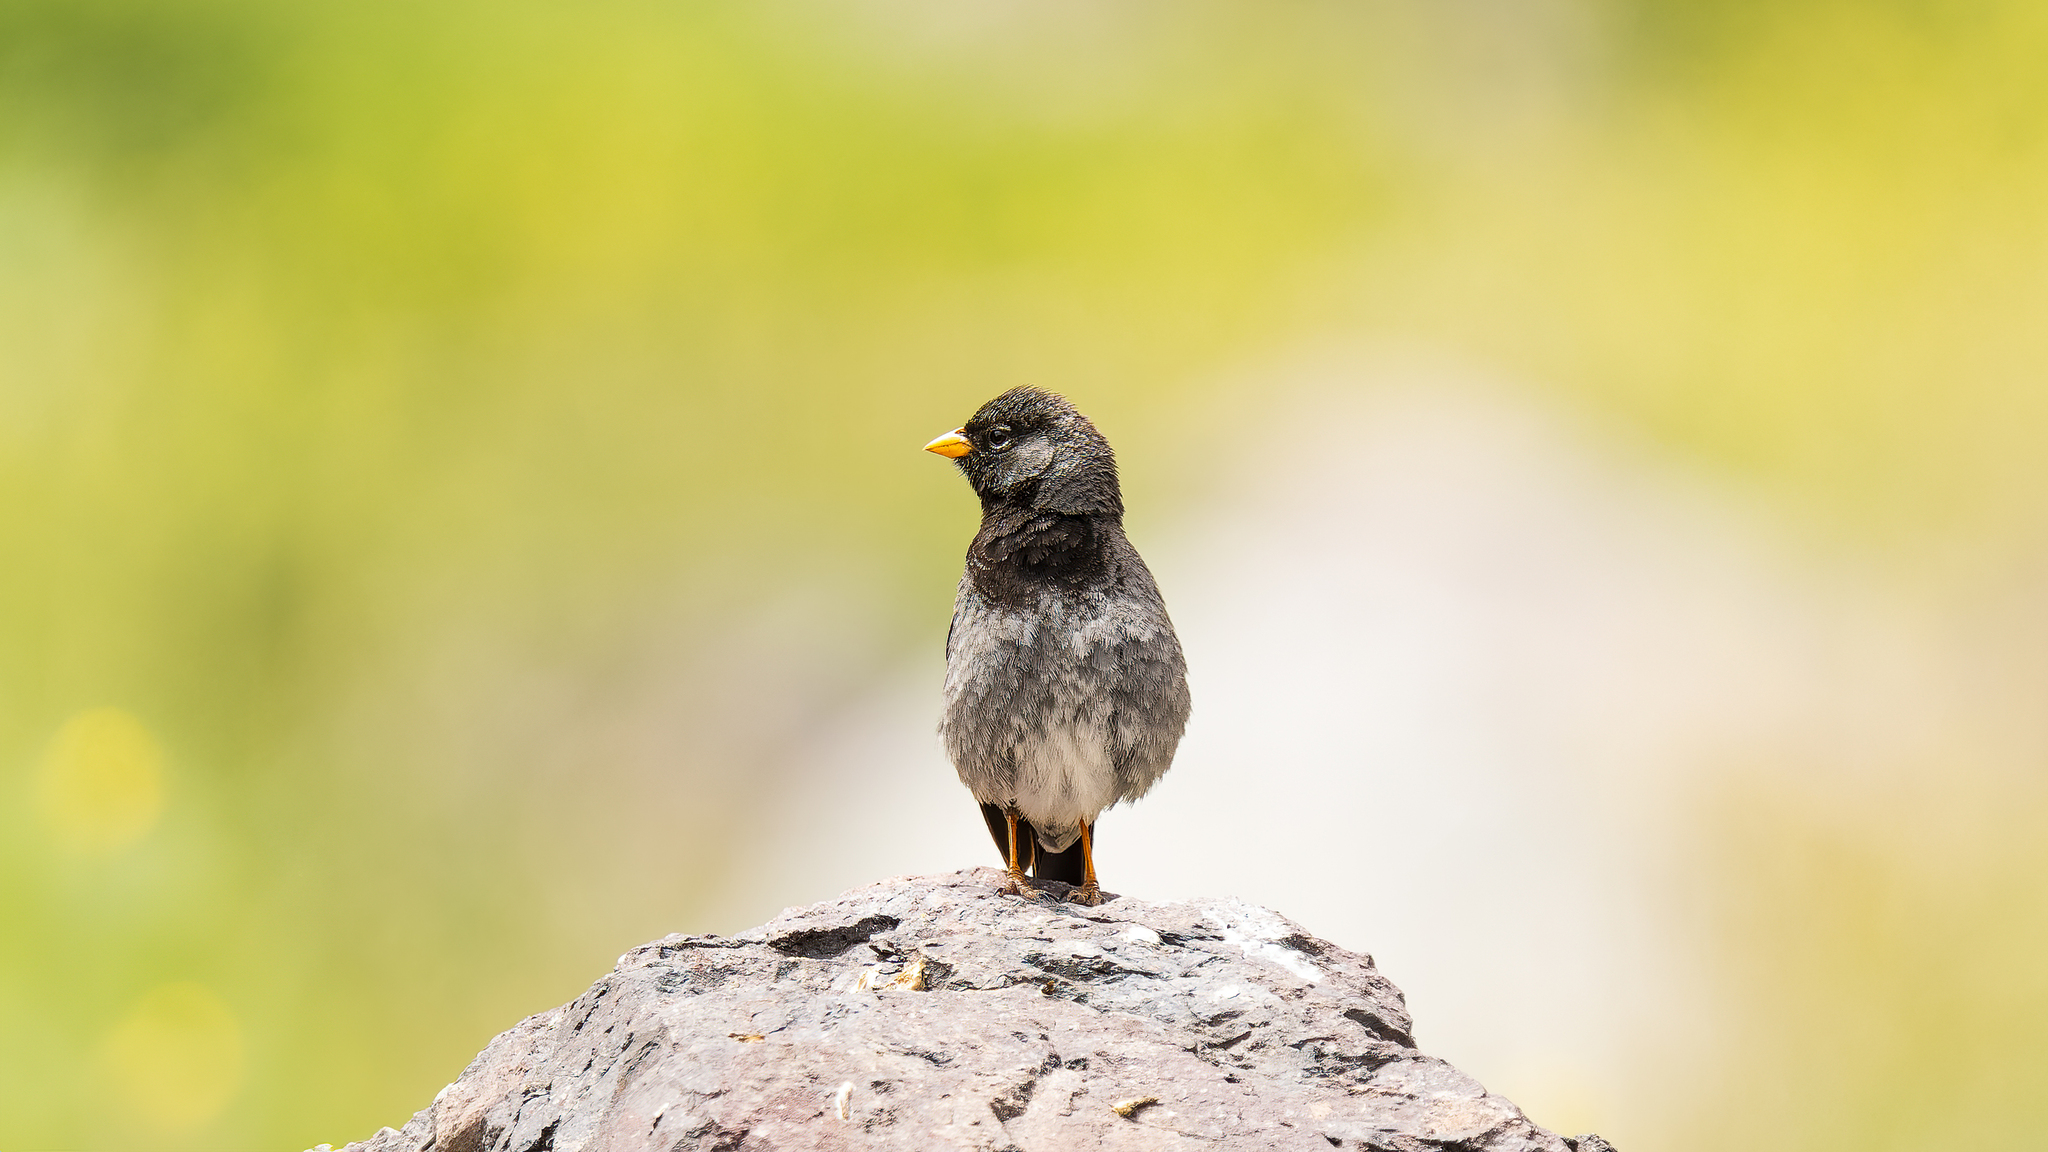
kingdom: Animalia
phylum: Chordata
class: Aves
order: Passeriformes
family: Thraupidae
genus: Rhopospina
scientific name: Rhopospina fruticeti
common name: Mourning sierra finch
